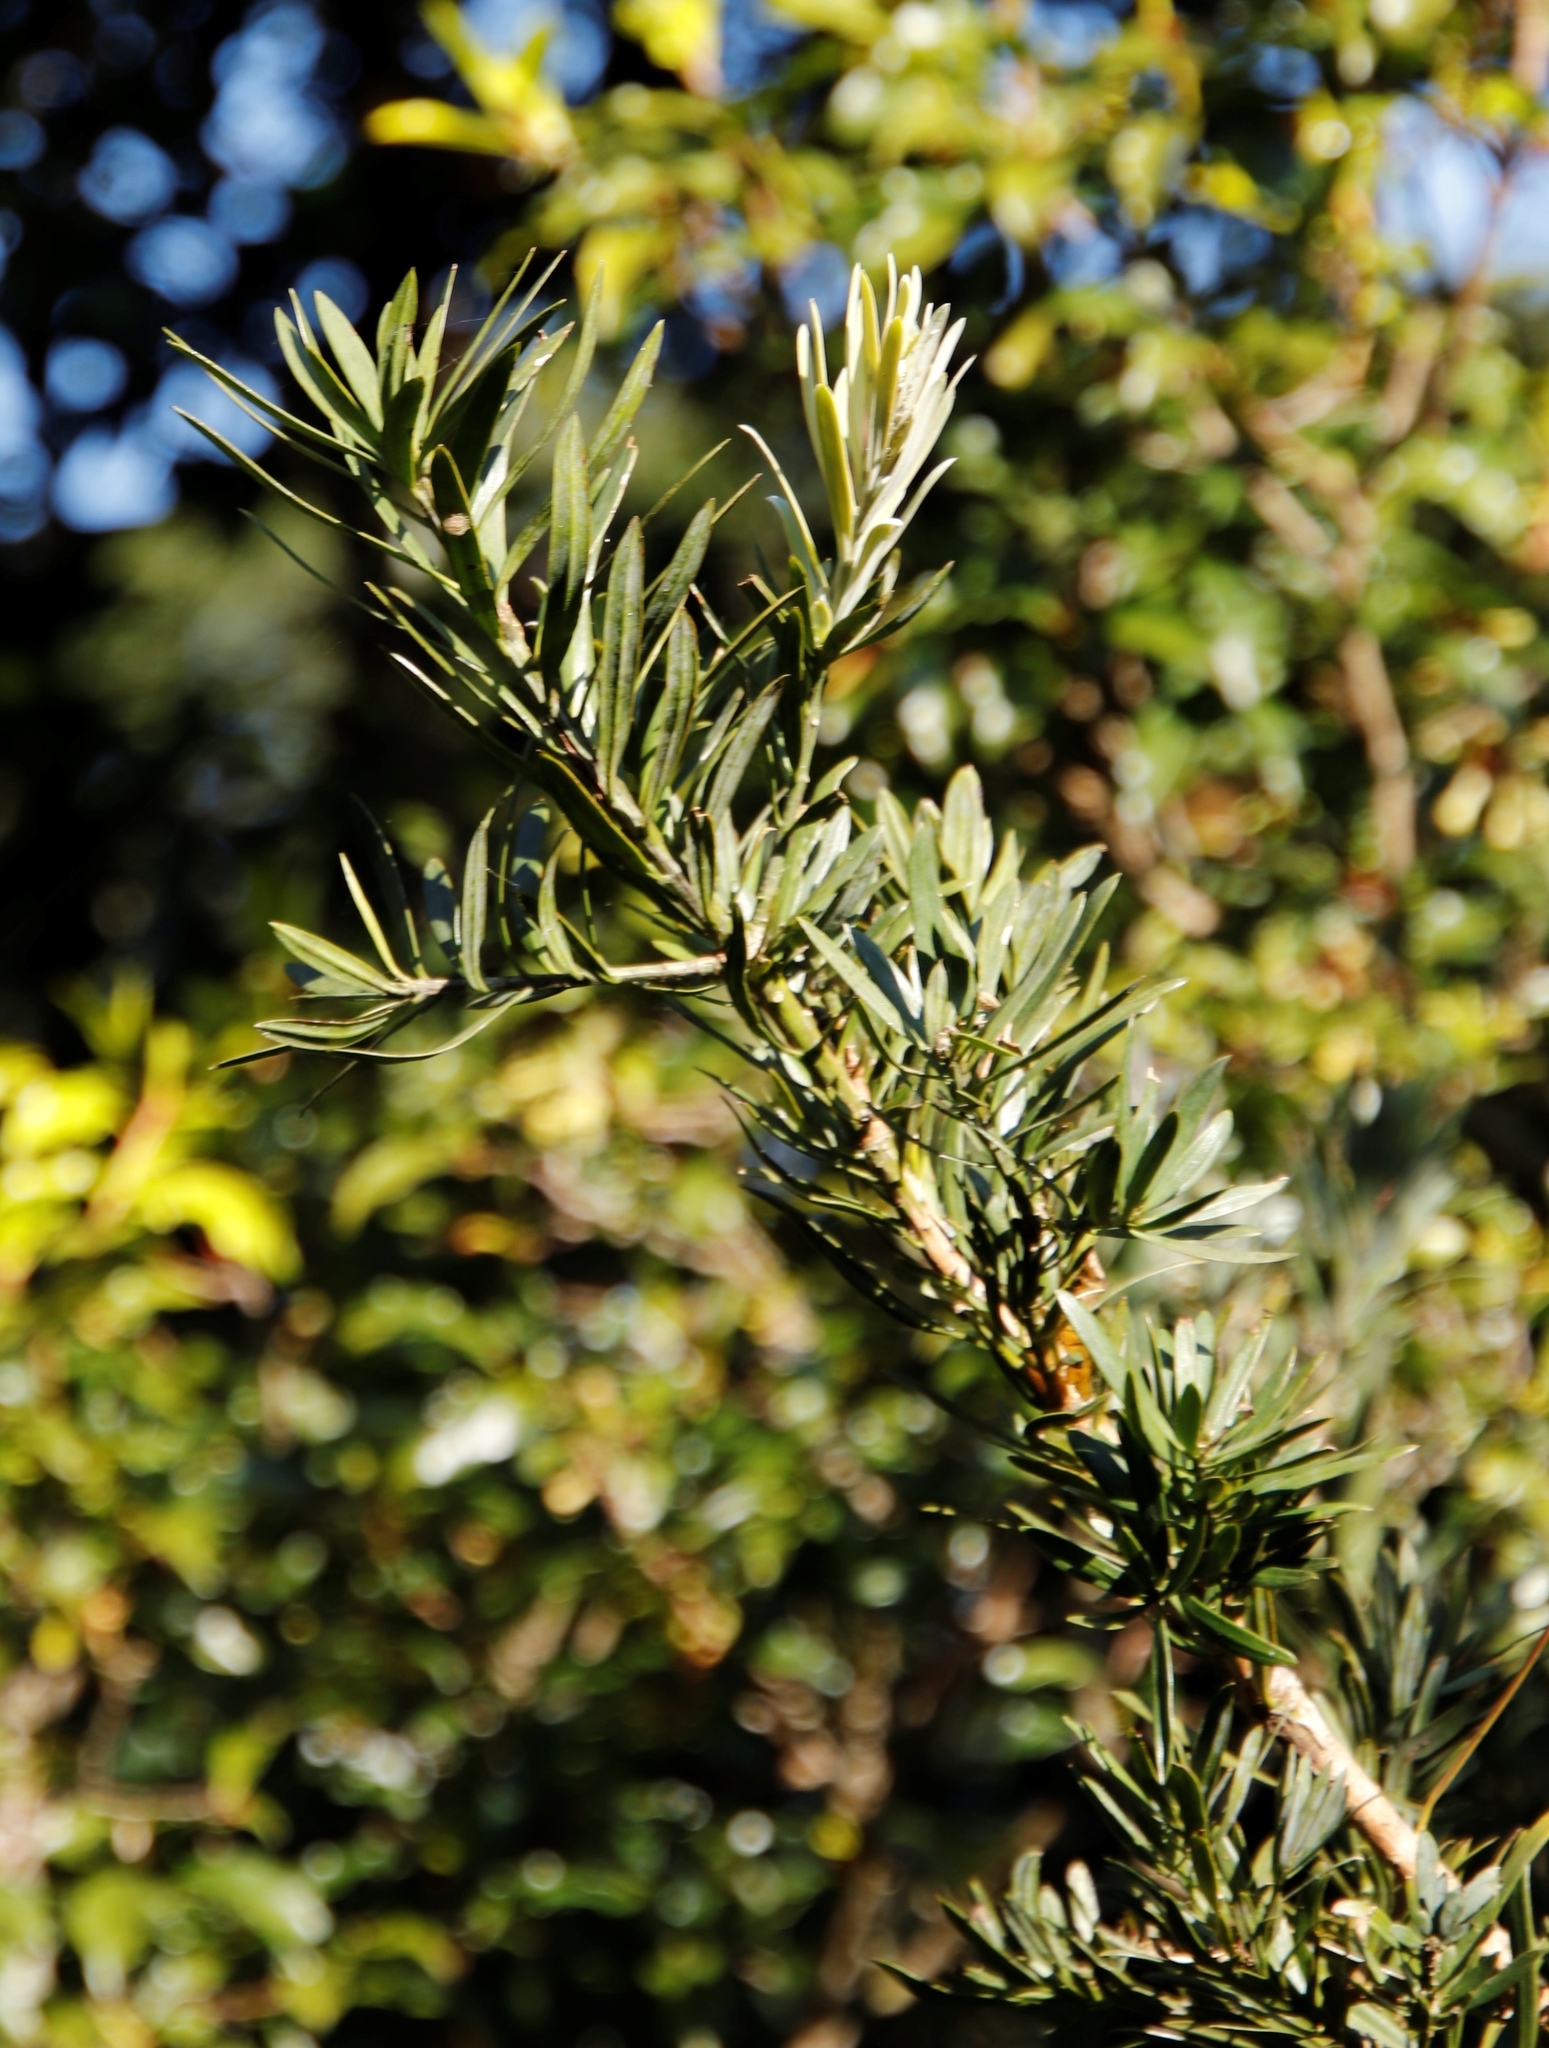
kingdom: Plantae
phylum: Tracheophyta
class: Pinopsida
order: Pinales
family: Podocarpaceae
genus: Podocarpus
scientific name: Podocarpus latifolius
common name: True yellowwood
